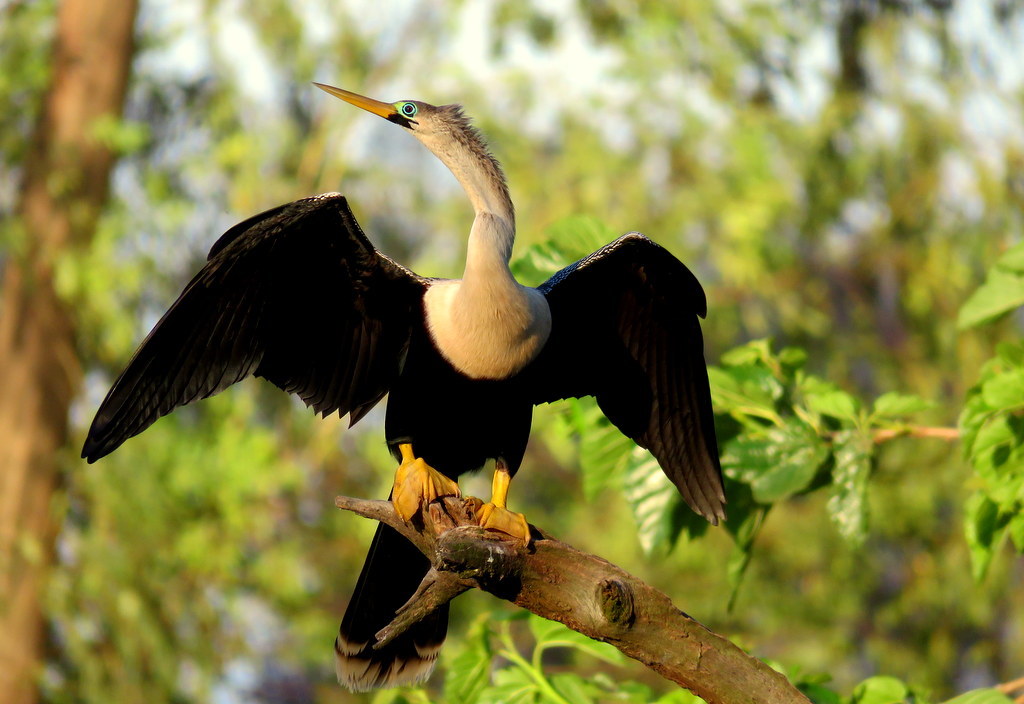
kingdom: Animalia
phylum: Chordata
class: Aves
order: Suliformes
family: Anhingidae
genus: Anhinga
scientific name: Anhinga anhinga
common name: Anhinga
